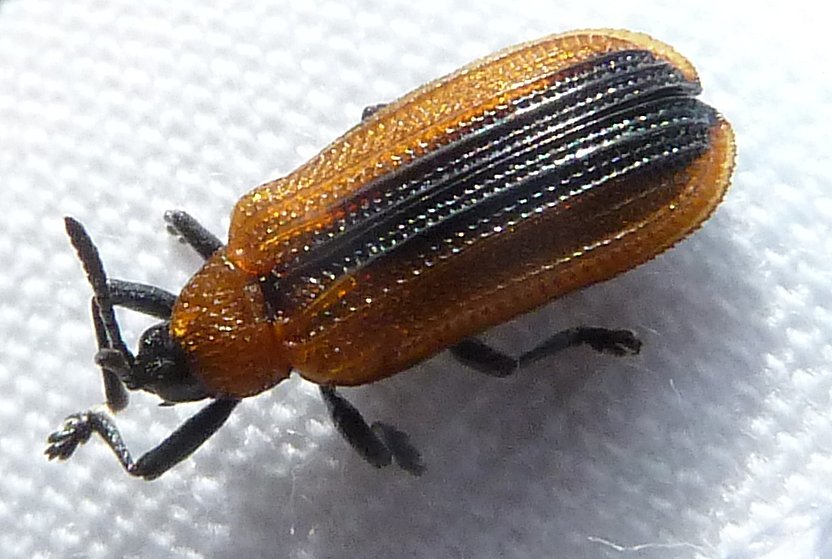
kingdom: Animalia
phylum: Arthropoda
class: Insecta
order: Coleoptera
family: Chrysomelidae
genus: Odontota
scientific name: Odontota dorsalis
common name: Locust leaf-miner beetle
